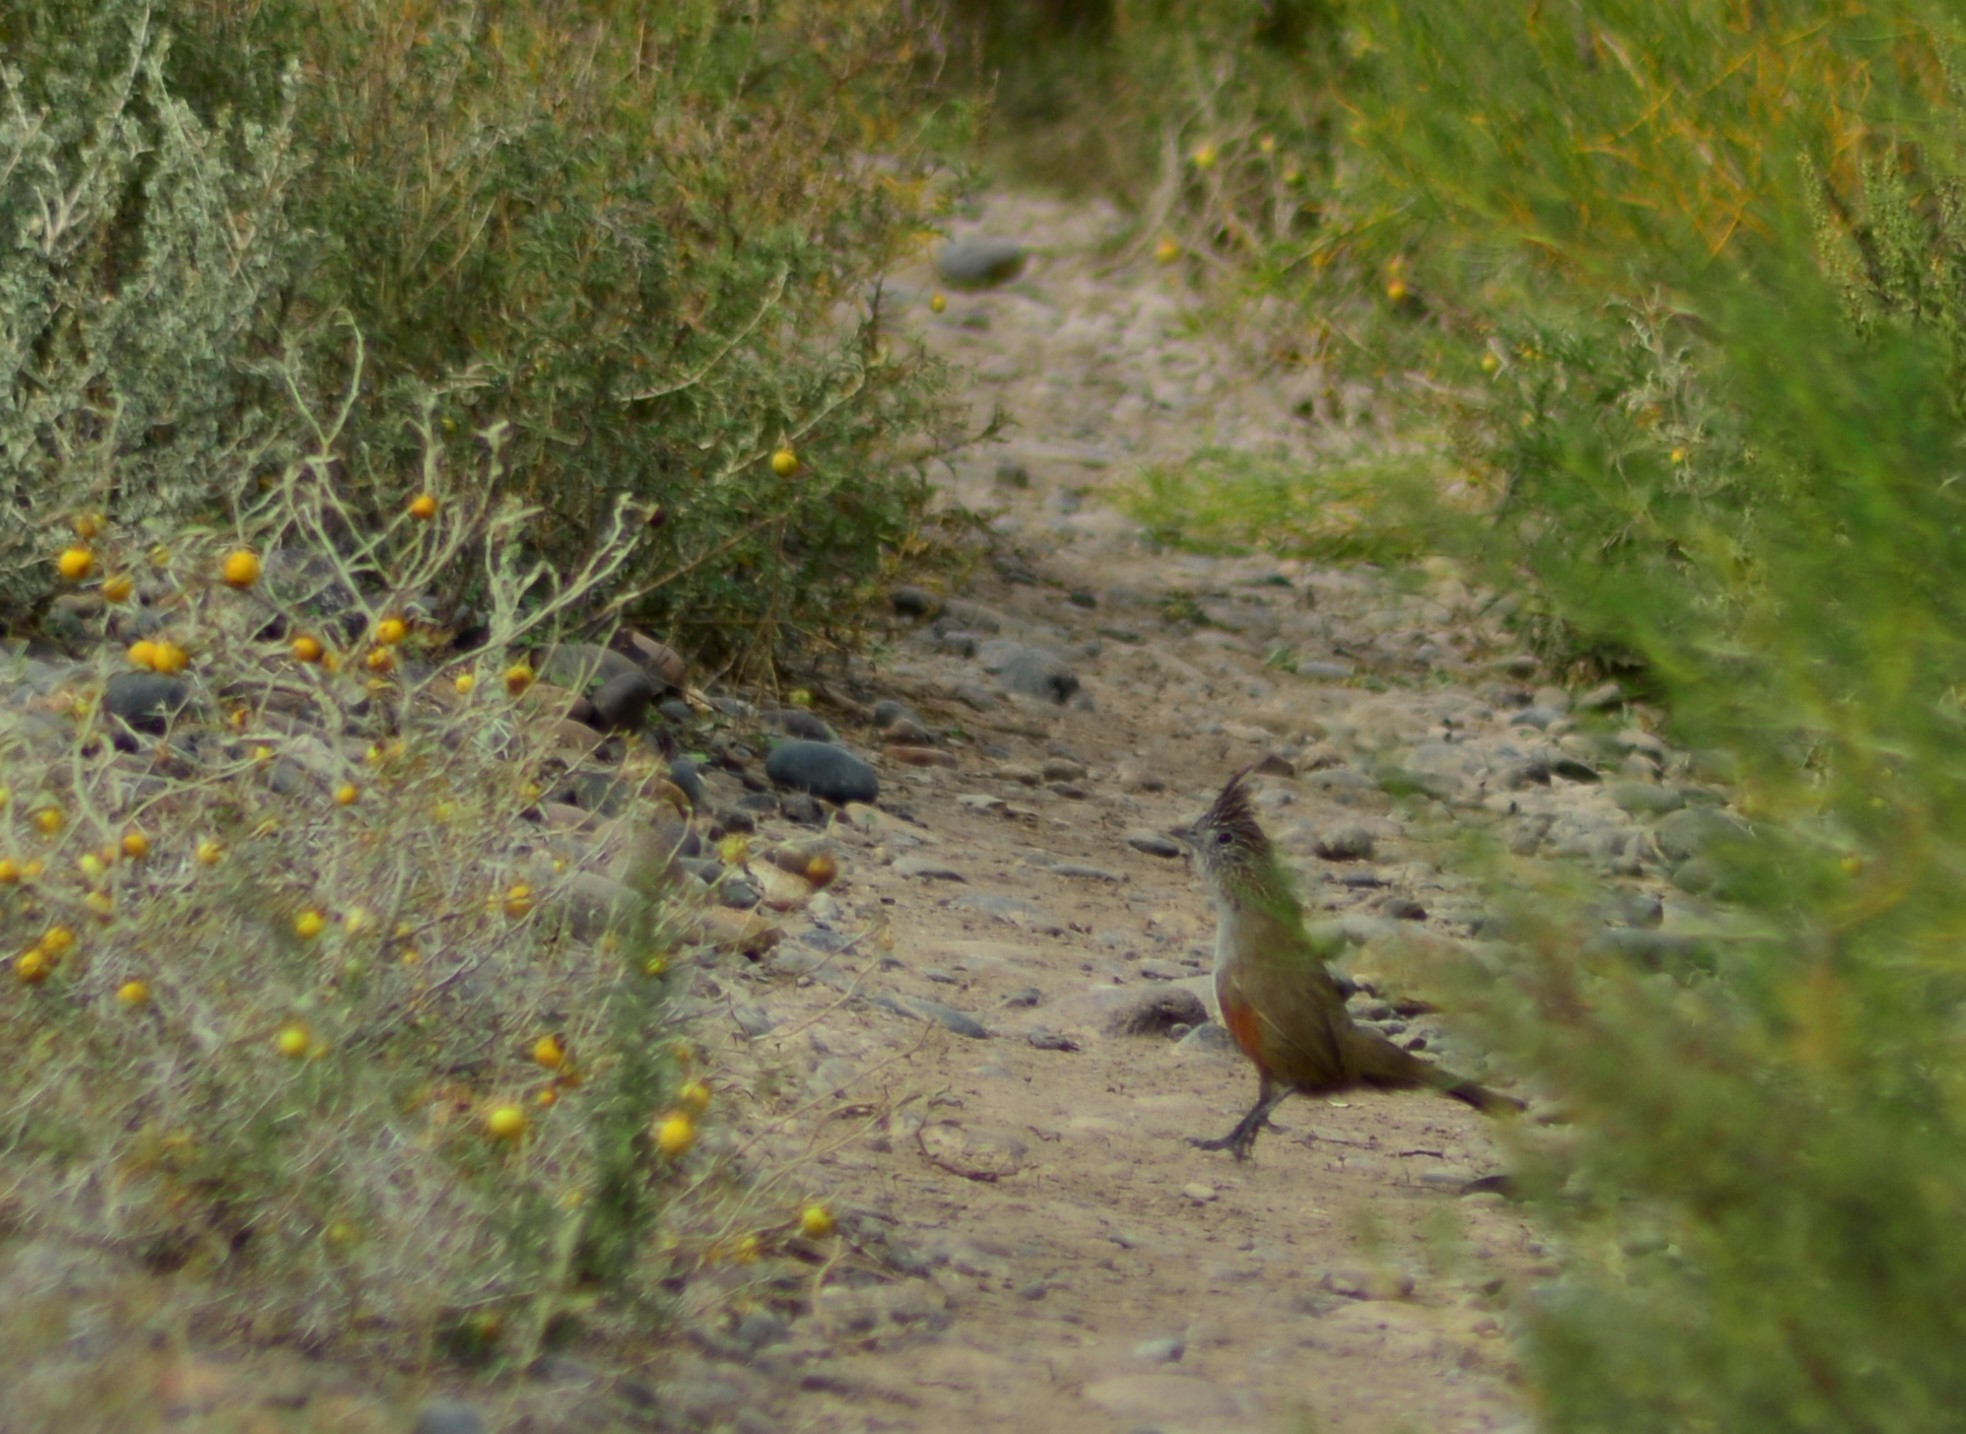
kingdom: Animalia
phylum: Chordata
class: Aves
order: Passeriformes
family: Rhinocryptidae
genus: Rhinocrypta
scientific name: Rhinocrypta lanceolata
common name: Crested gallito
